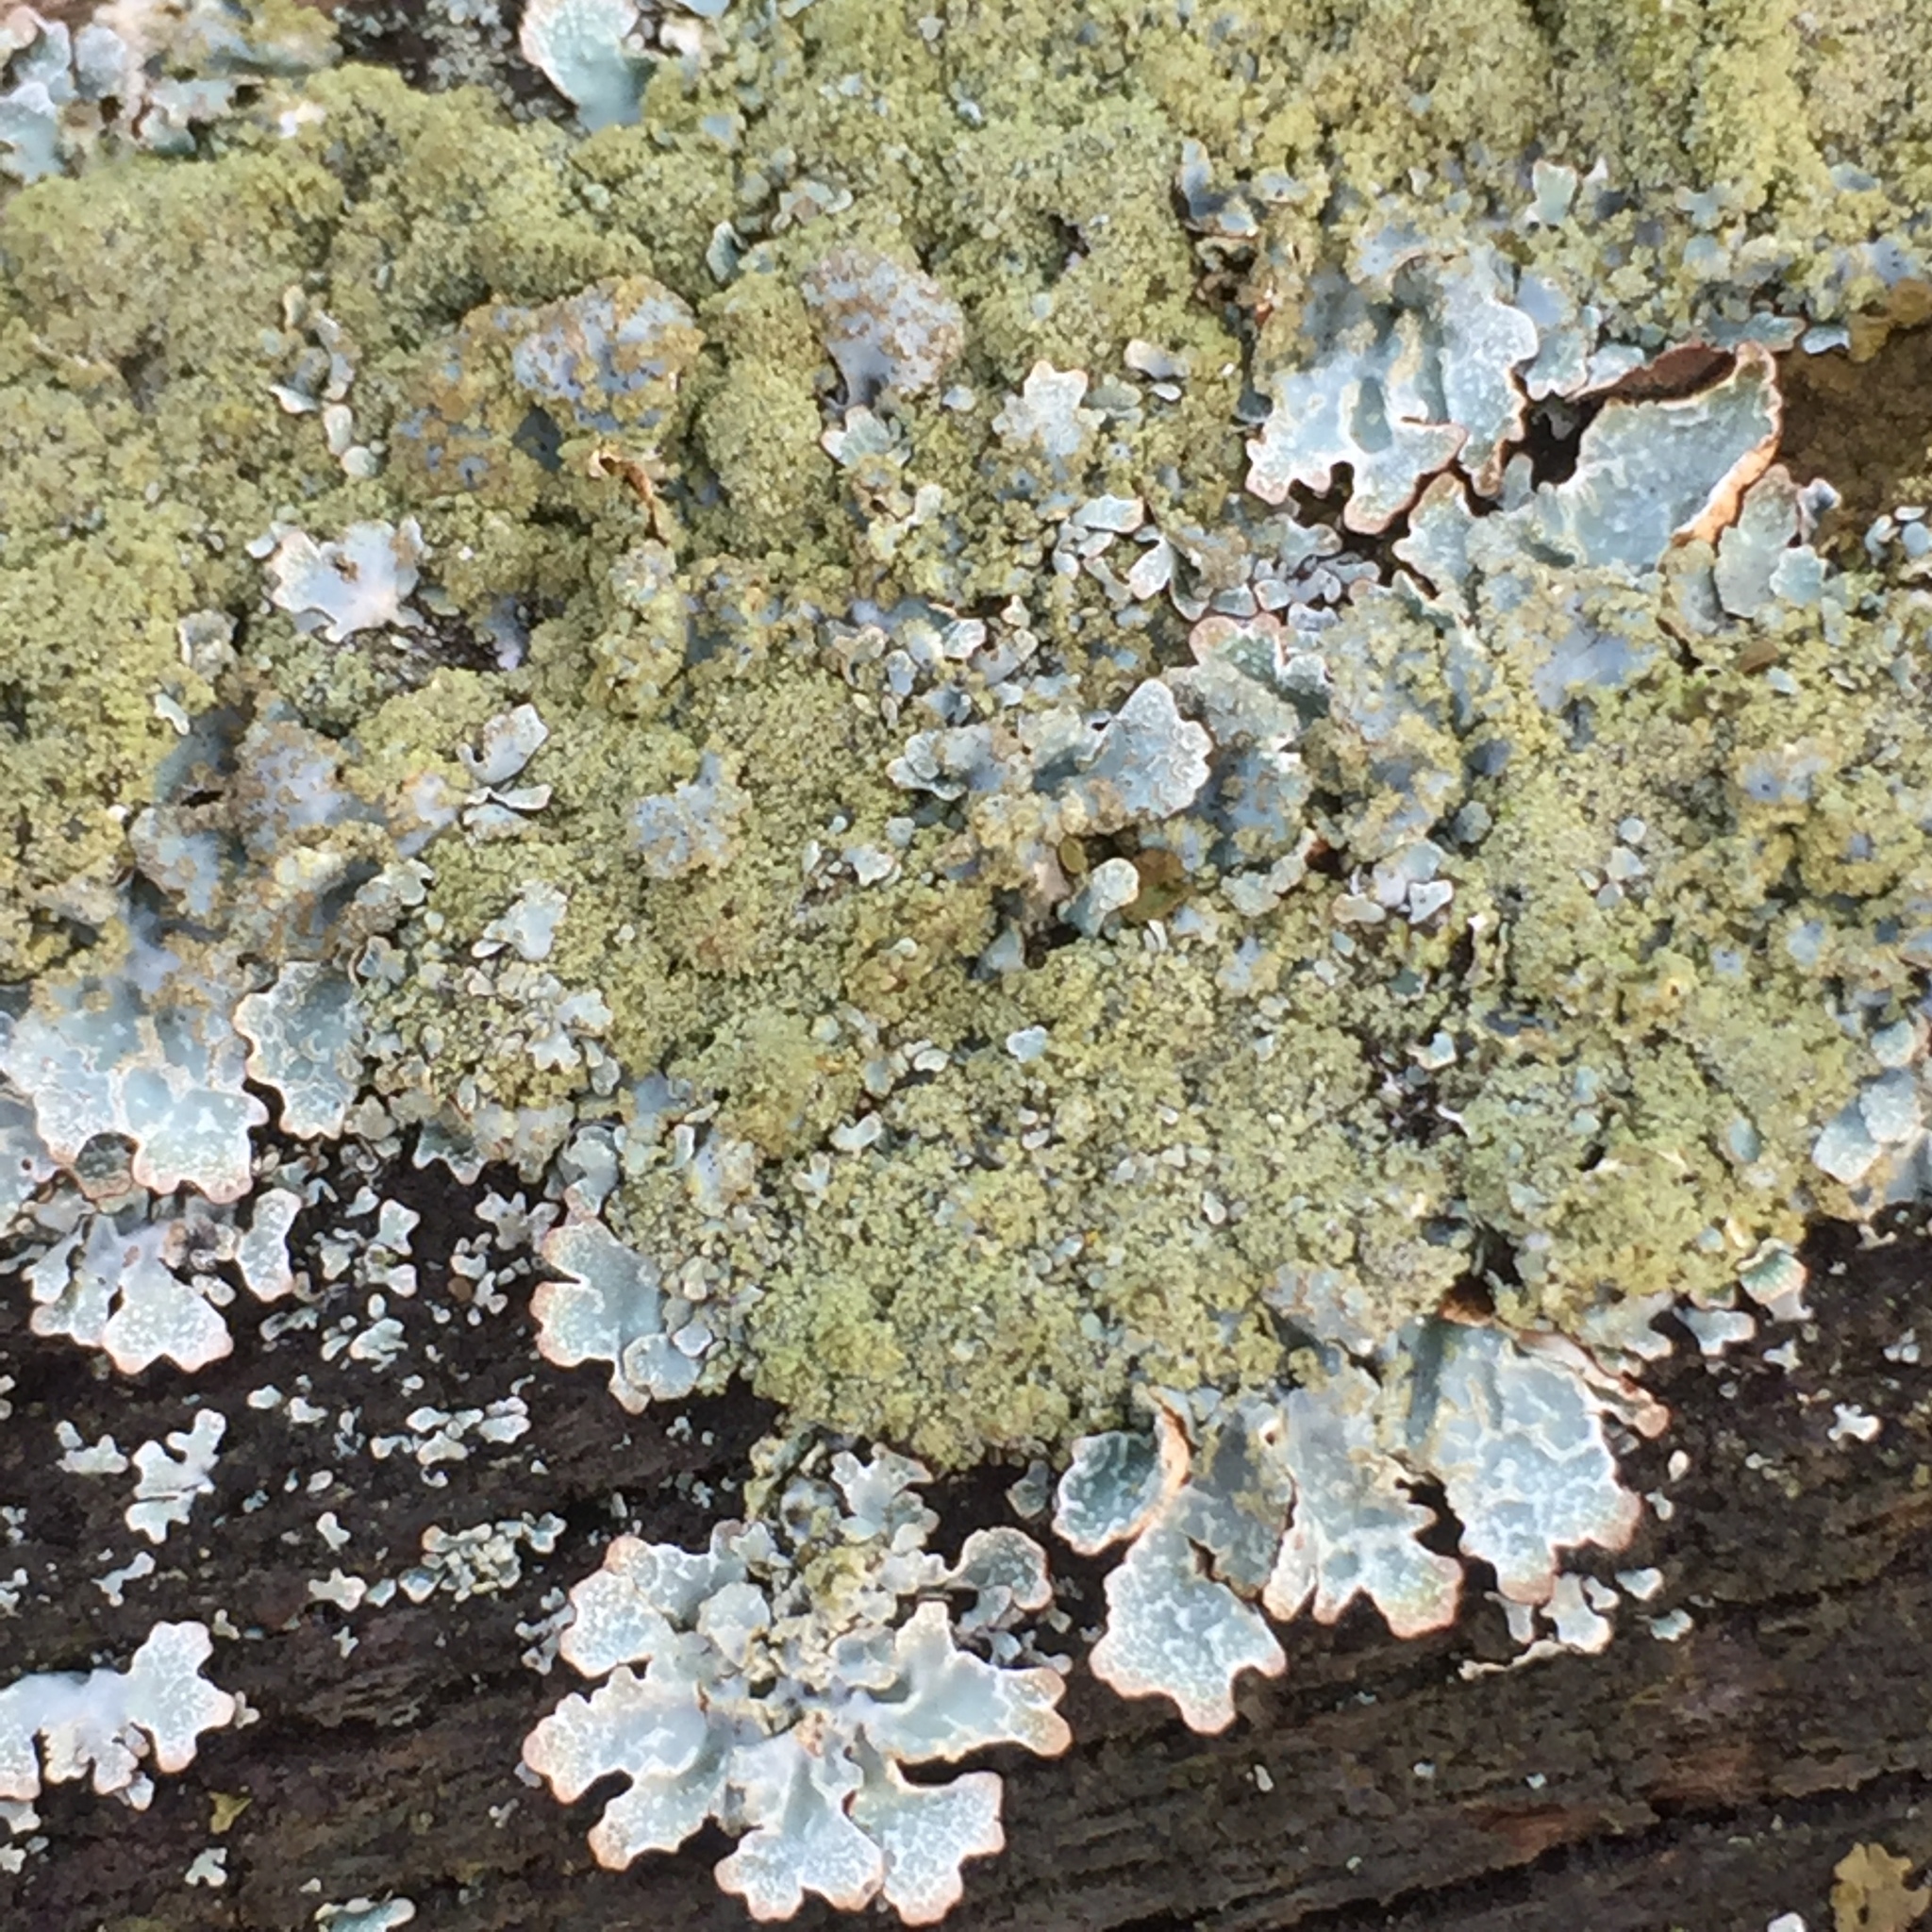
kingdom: Fungi
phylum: Ascomycota
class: Lecanoromycetes
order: Lecanorales
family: Parmeliaceae
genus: Parmelia
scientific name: Parmelia sulcata
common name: Netted shield lichen
